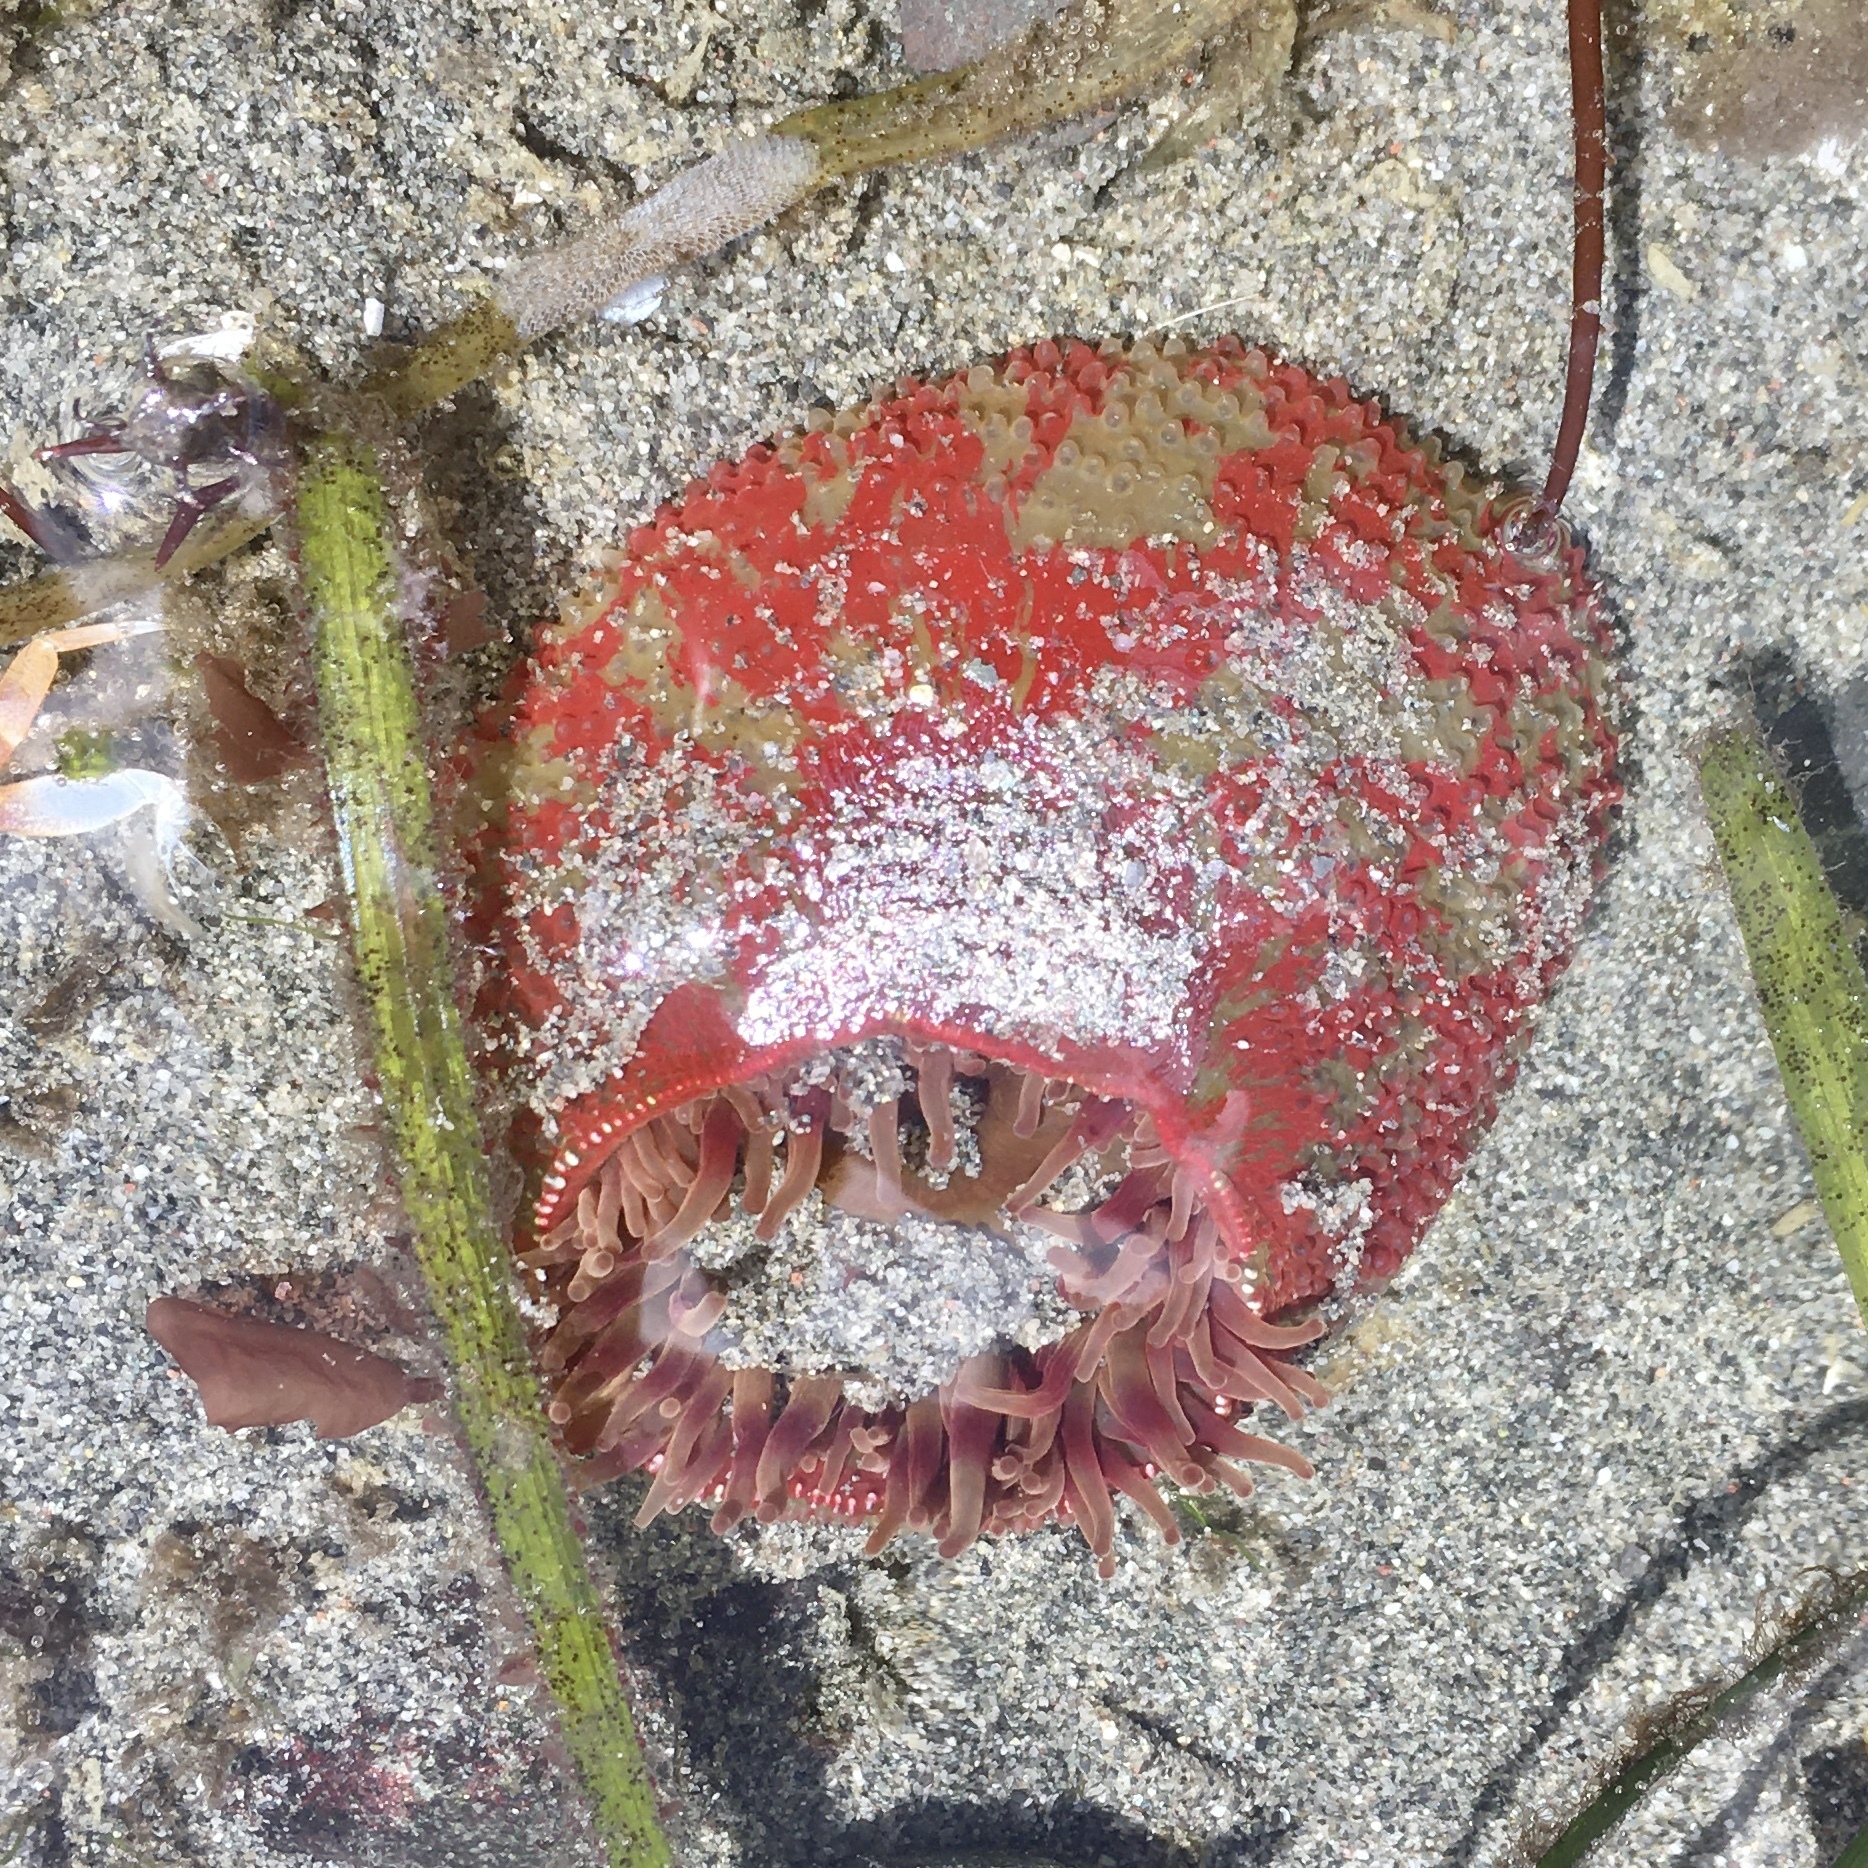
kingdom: Animalia
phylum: Cnidaria
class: Anthozoa
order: Actiniaria
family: Actiniidae
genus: Urticina
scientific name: Urticina grebelnyi
